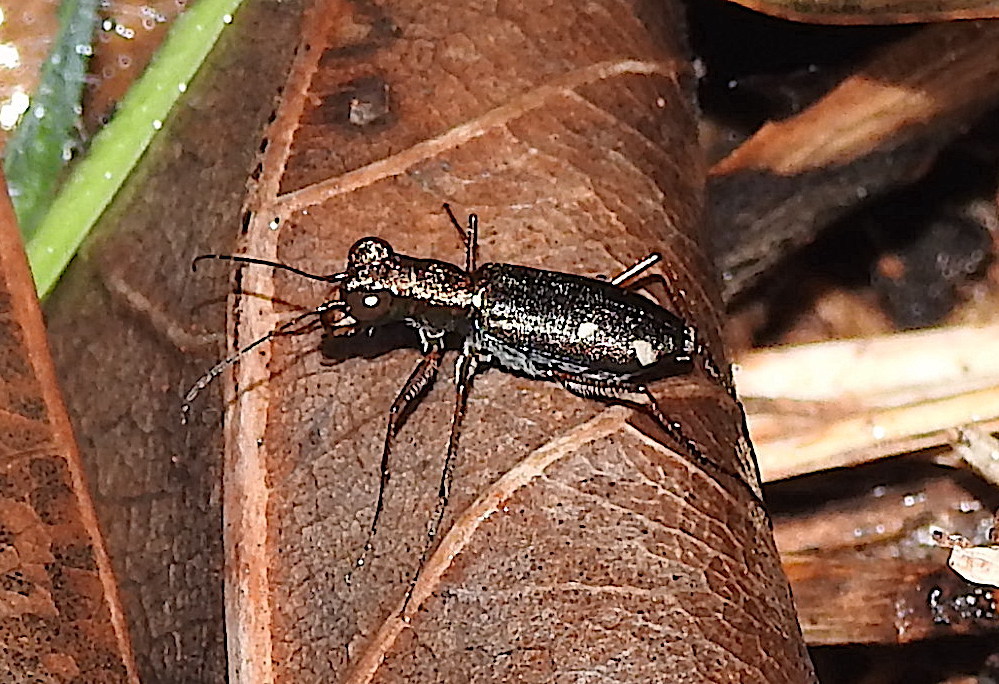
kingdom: Animalia
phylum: Arthropoda
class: Insecta
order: Coleoptera
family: Carabidae
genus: Jansenia
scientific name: Jansenia semisetigerosa
